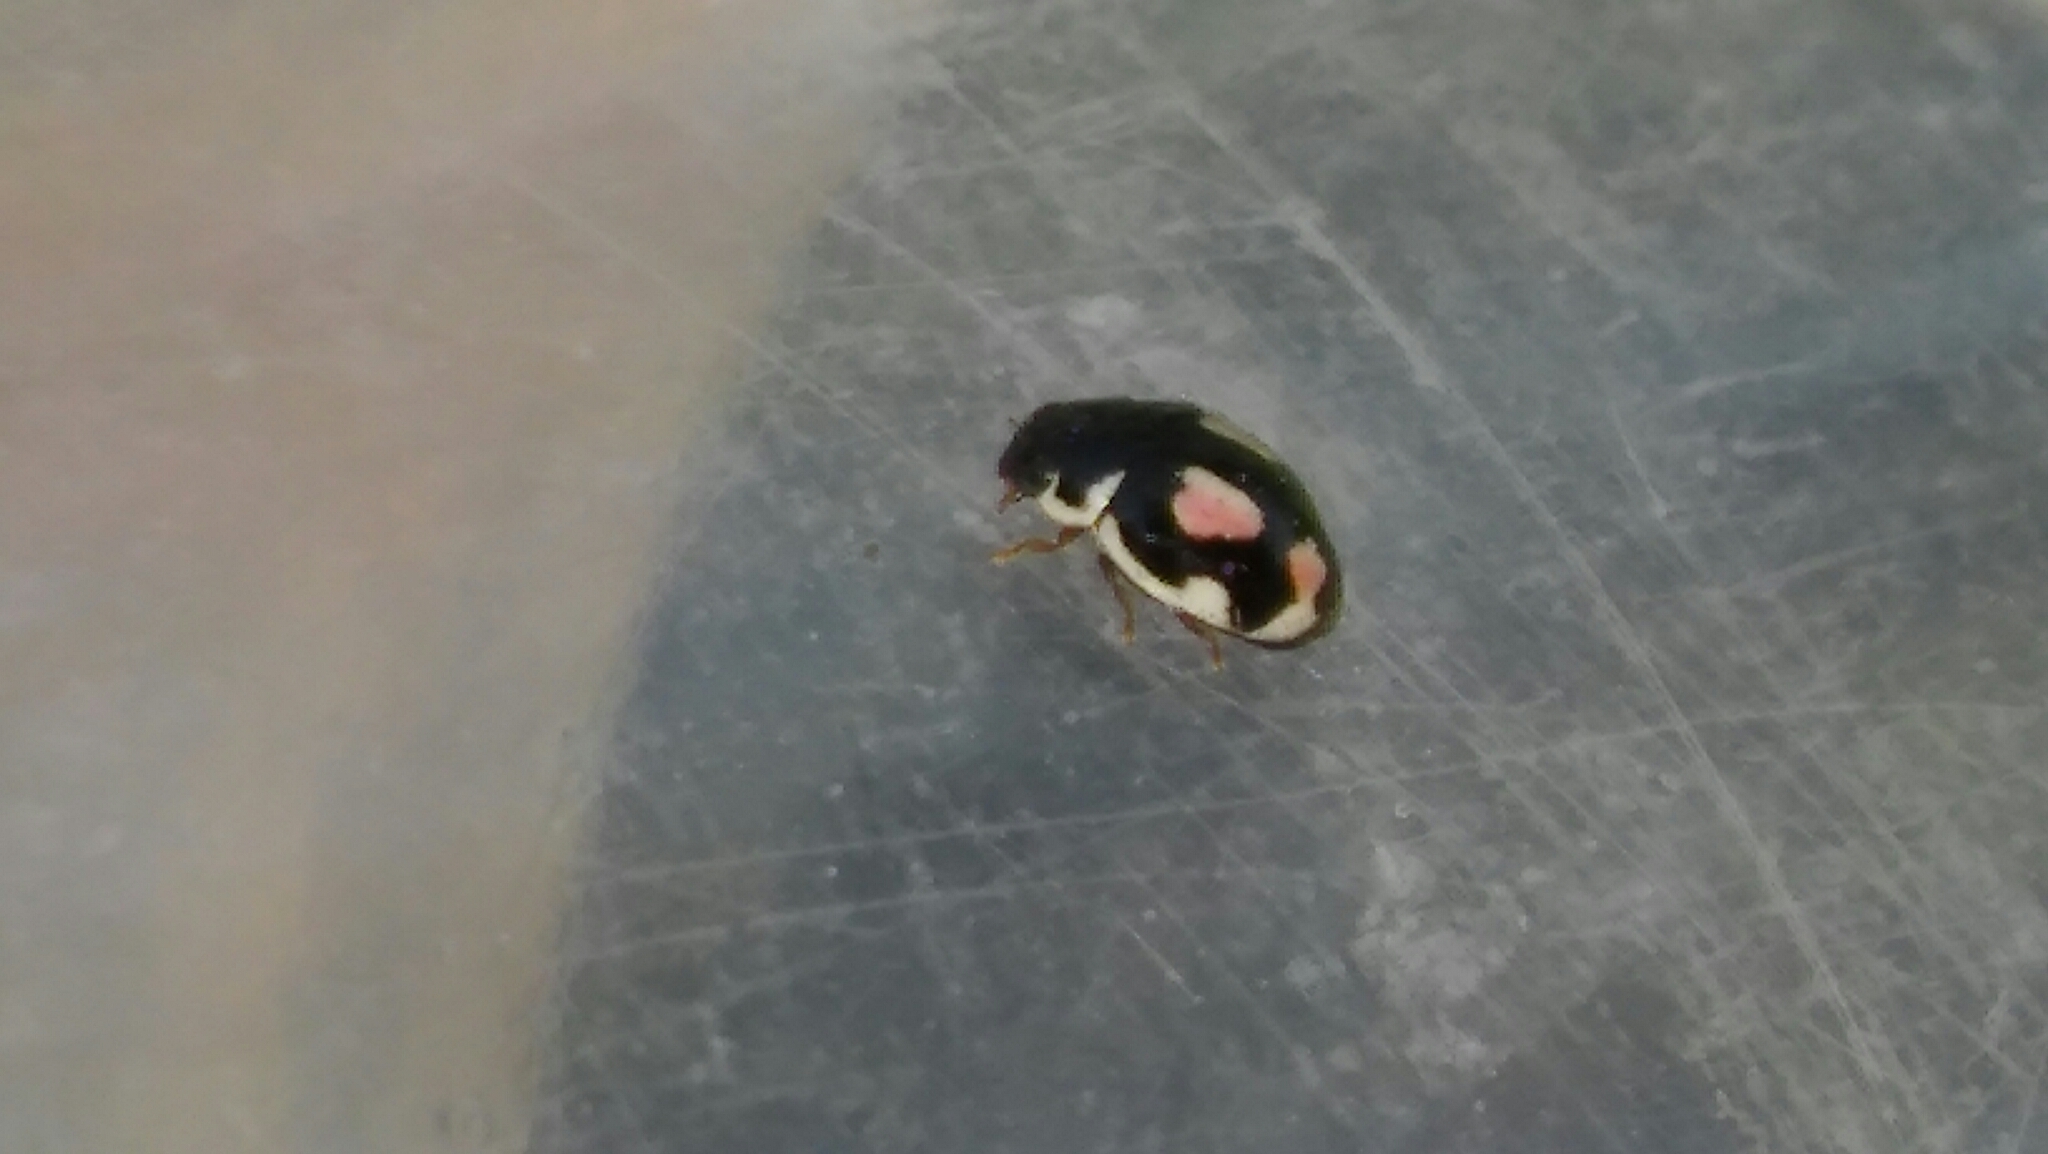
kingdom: Animalia
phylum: Arthropoda
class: Insecta
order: Coleoptera
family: Coccinellidae
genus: Hyperaspis
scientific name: Hyperaspis festiva
